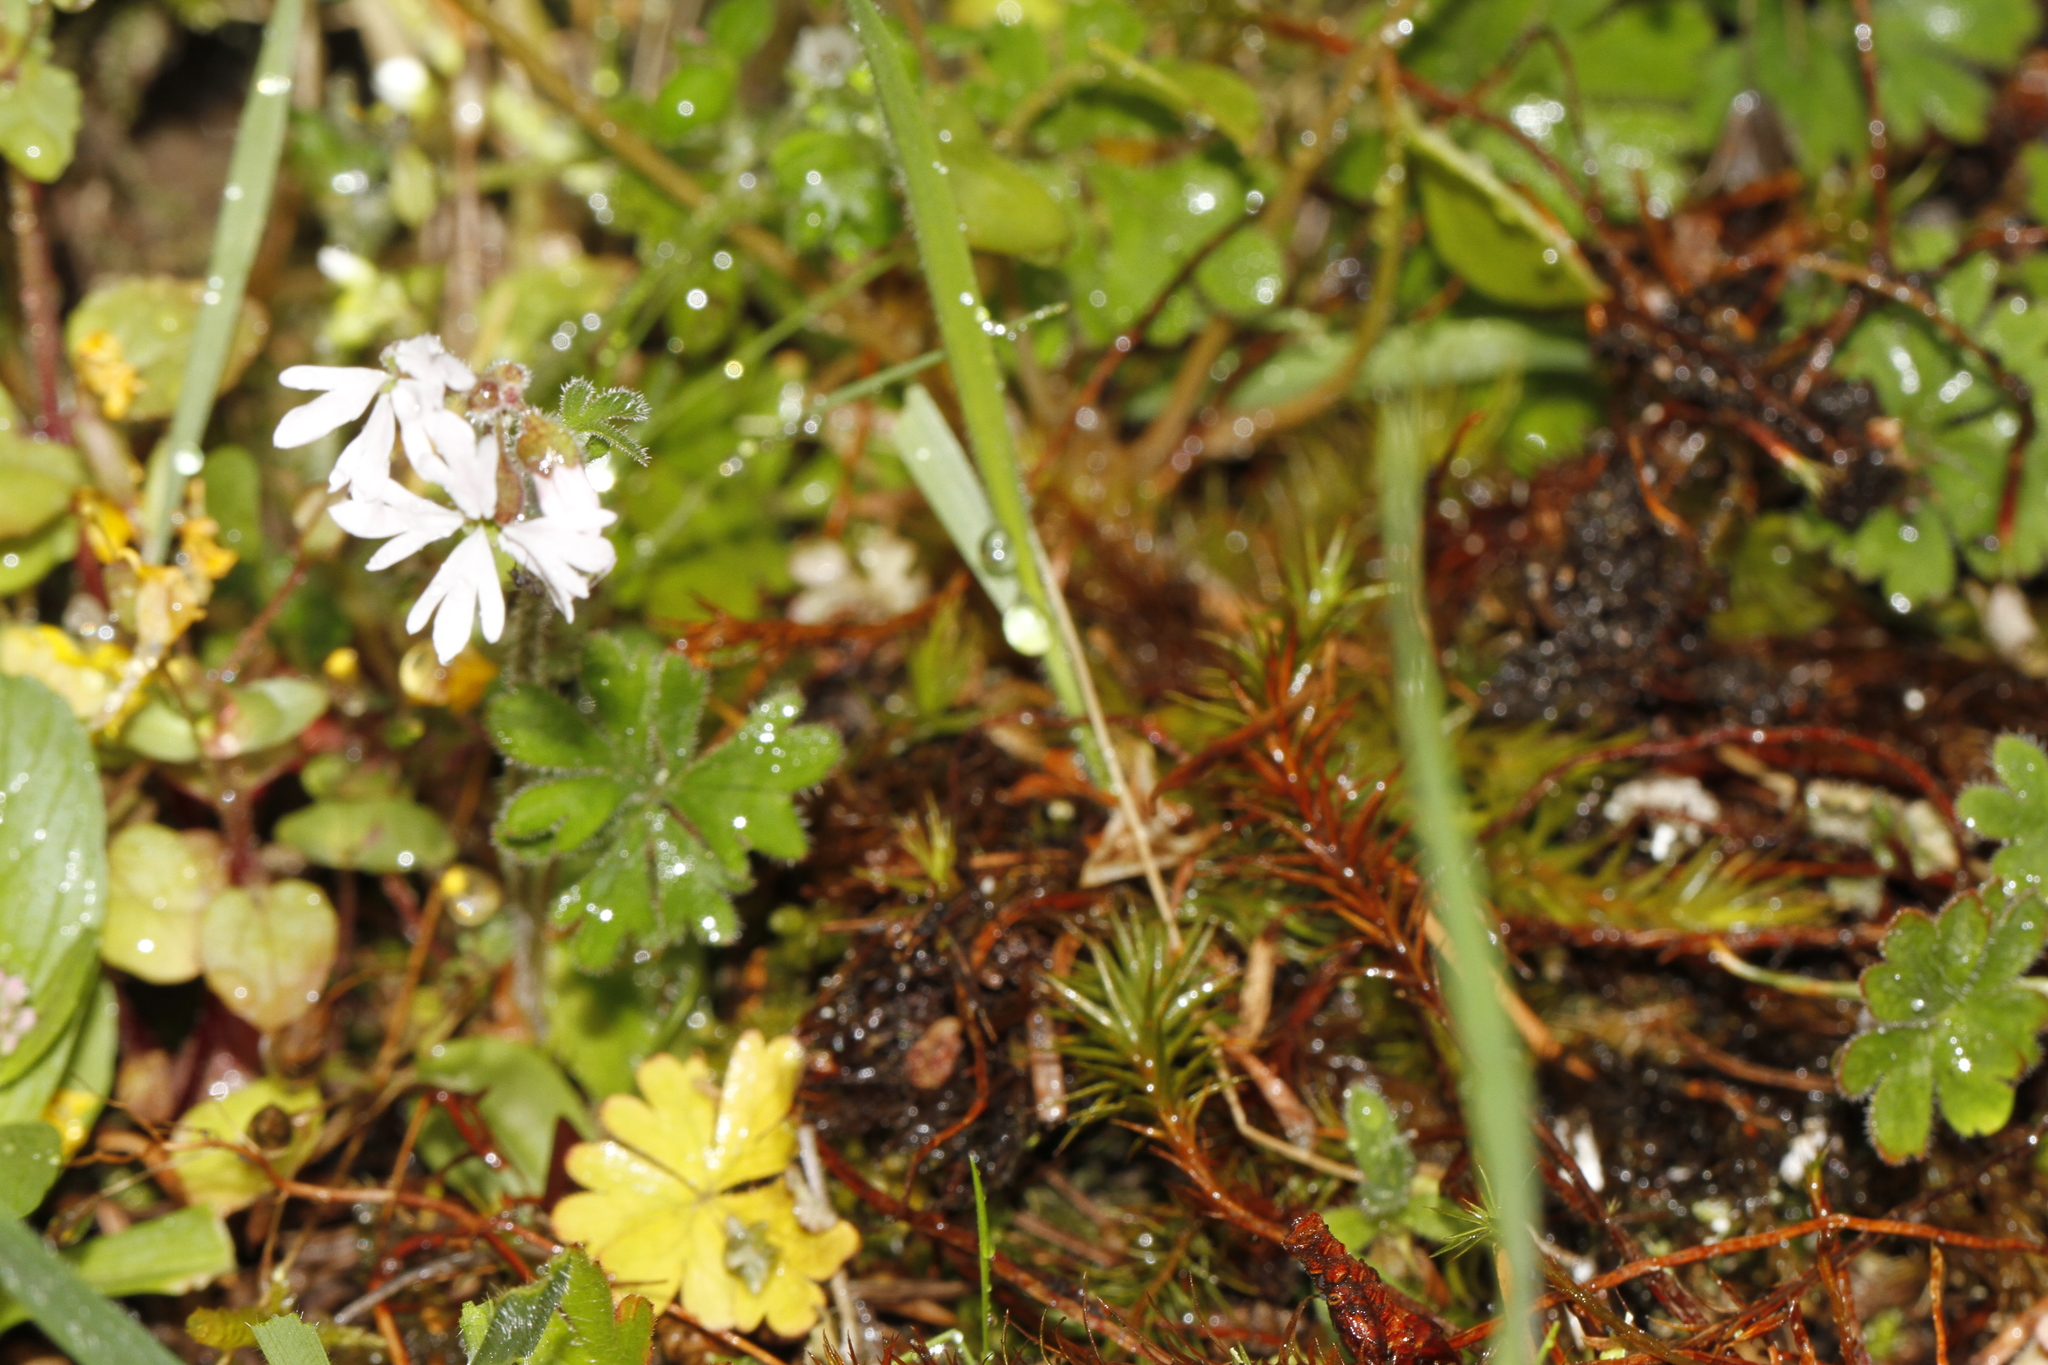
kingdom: Plantae
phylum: Tracheophyta
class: Magnoliopsida
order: Saxifragales
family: Saxifragaceae
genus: Lithophragma
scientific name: Lithophragma parviflorum
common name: Small-flowered fringe-cup
